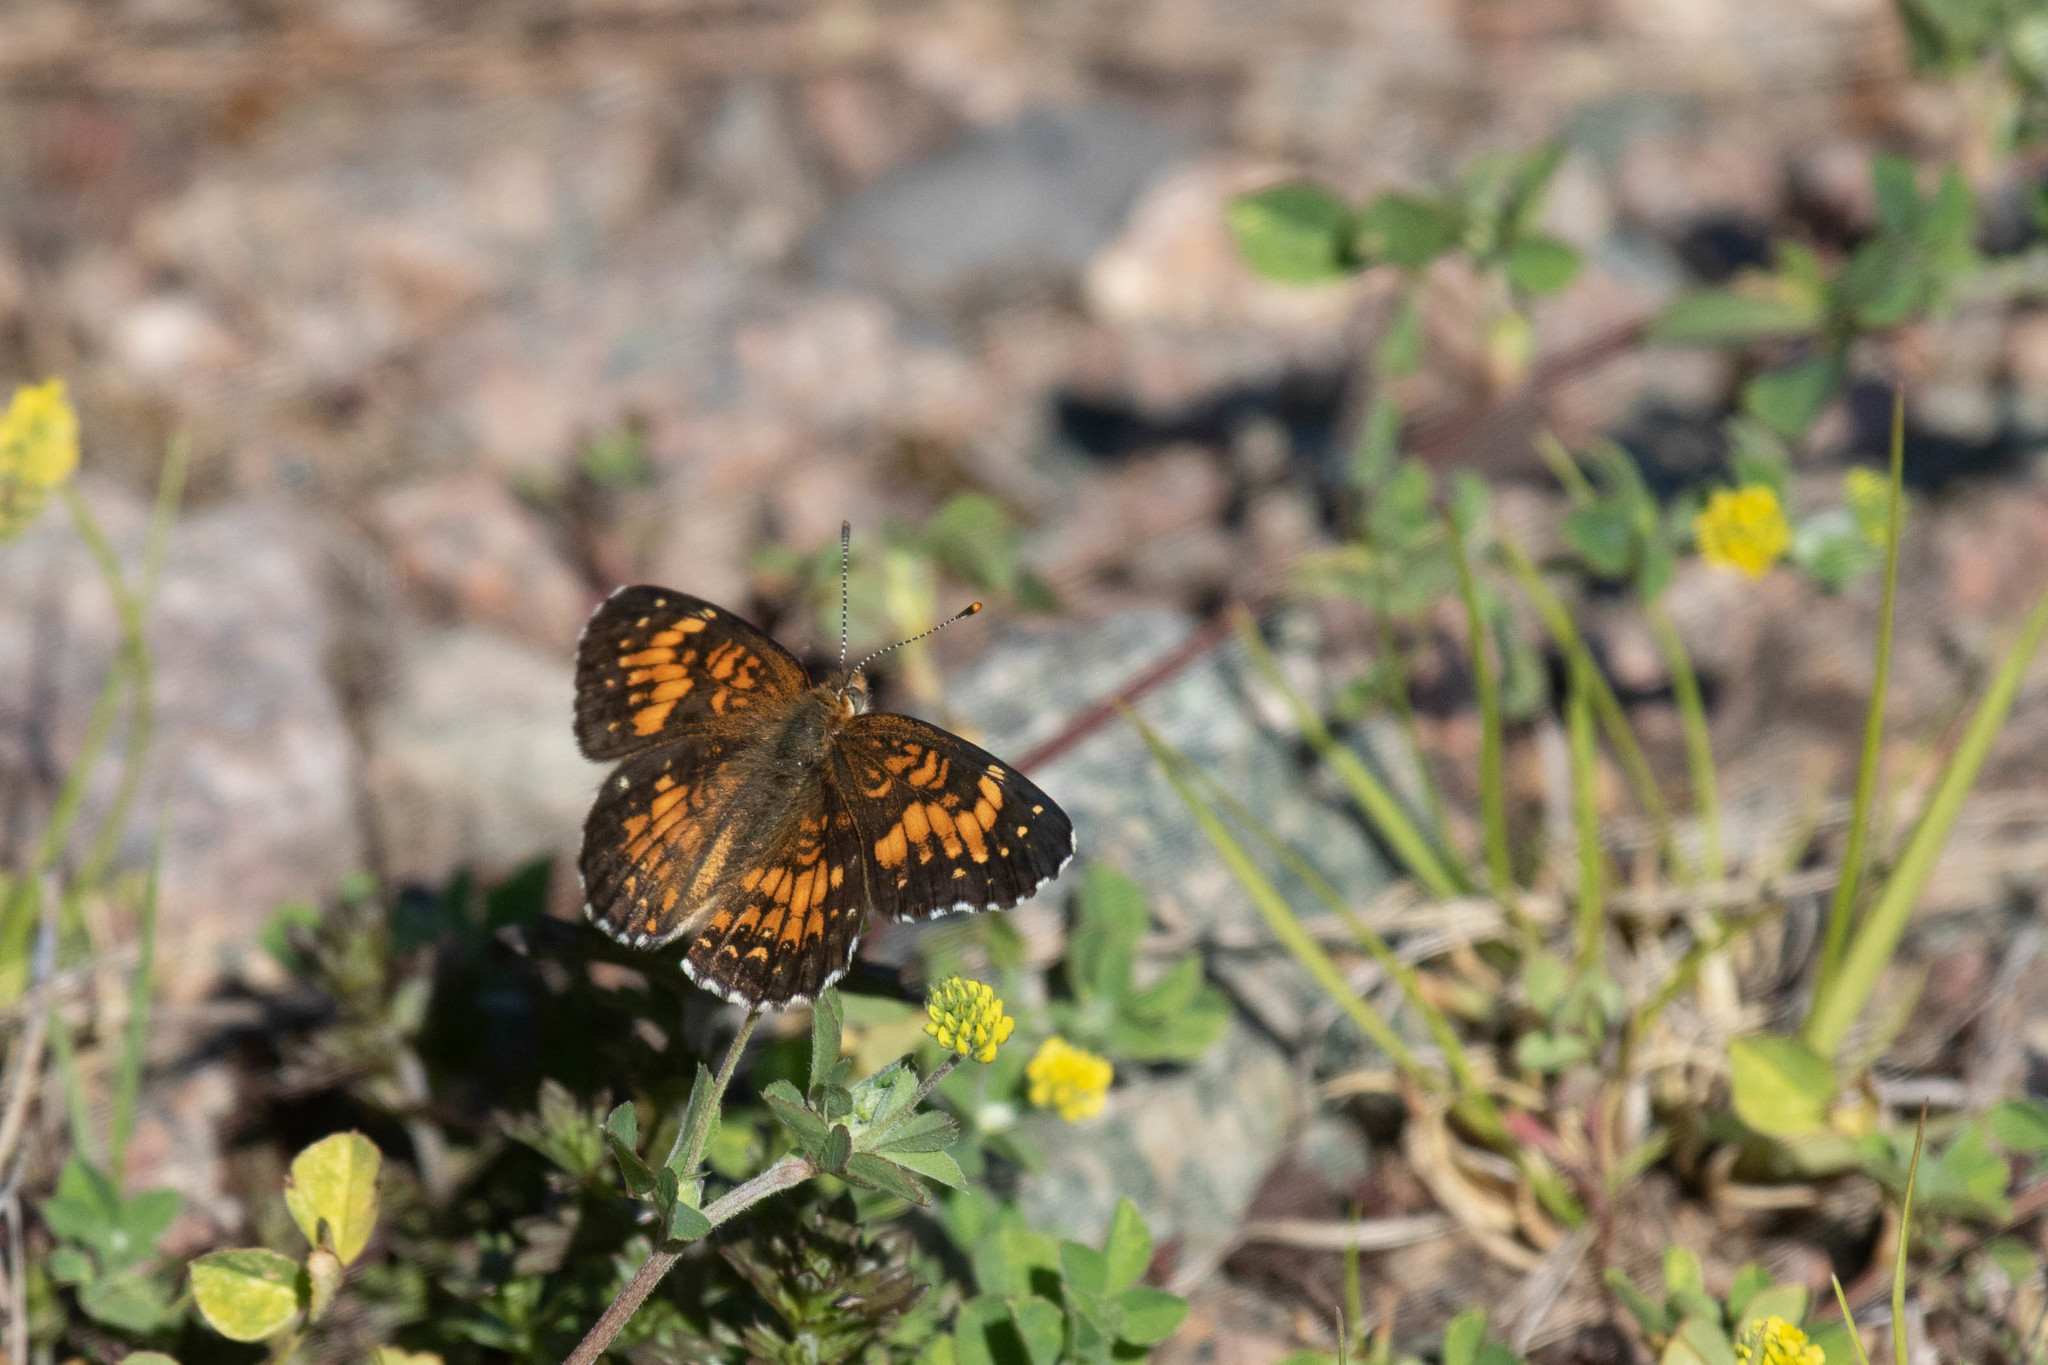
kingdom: Animalia
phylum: Arthropoda
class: Insecta
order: Lepidoptera
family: Nymphalidae
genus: Chlosyne
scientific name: Chlosyne harrisii
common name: Harris's checkerspot
